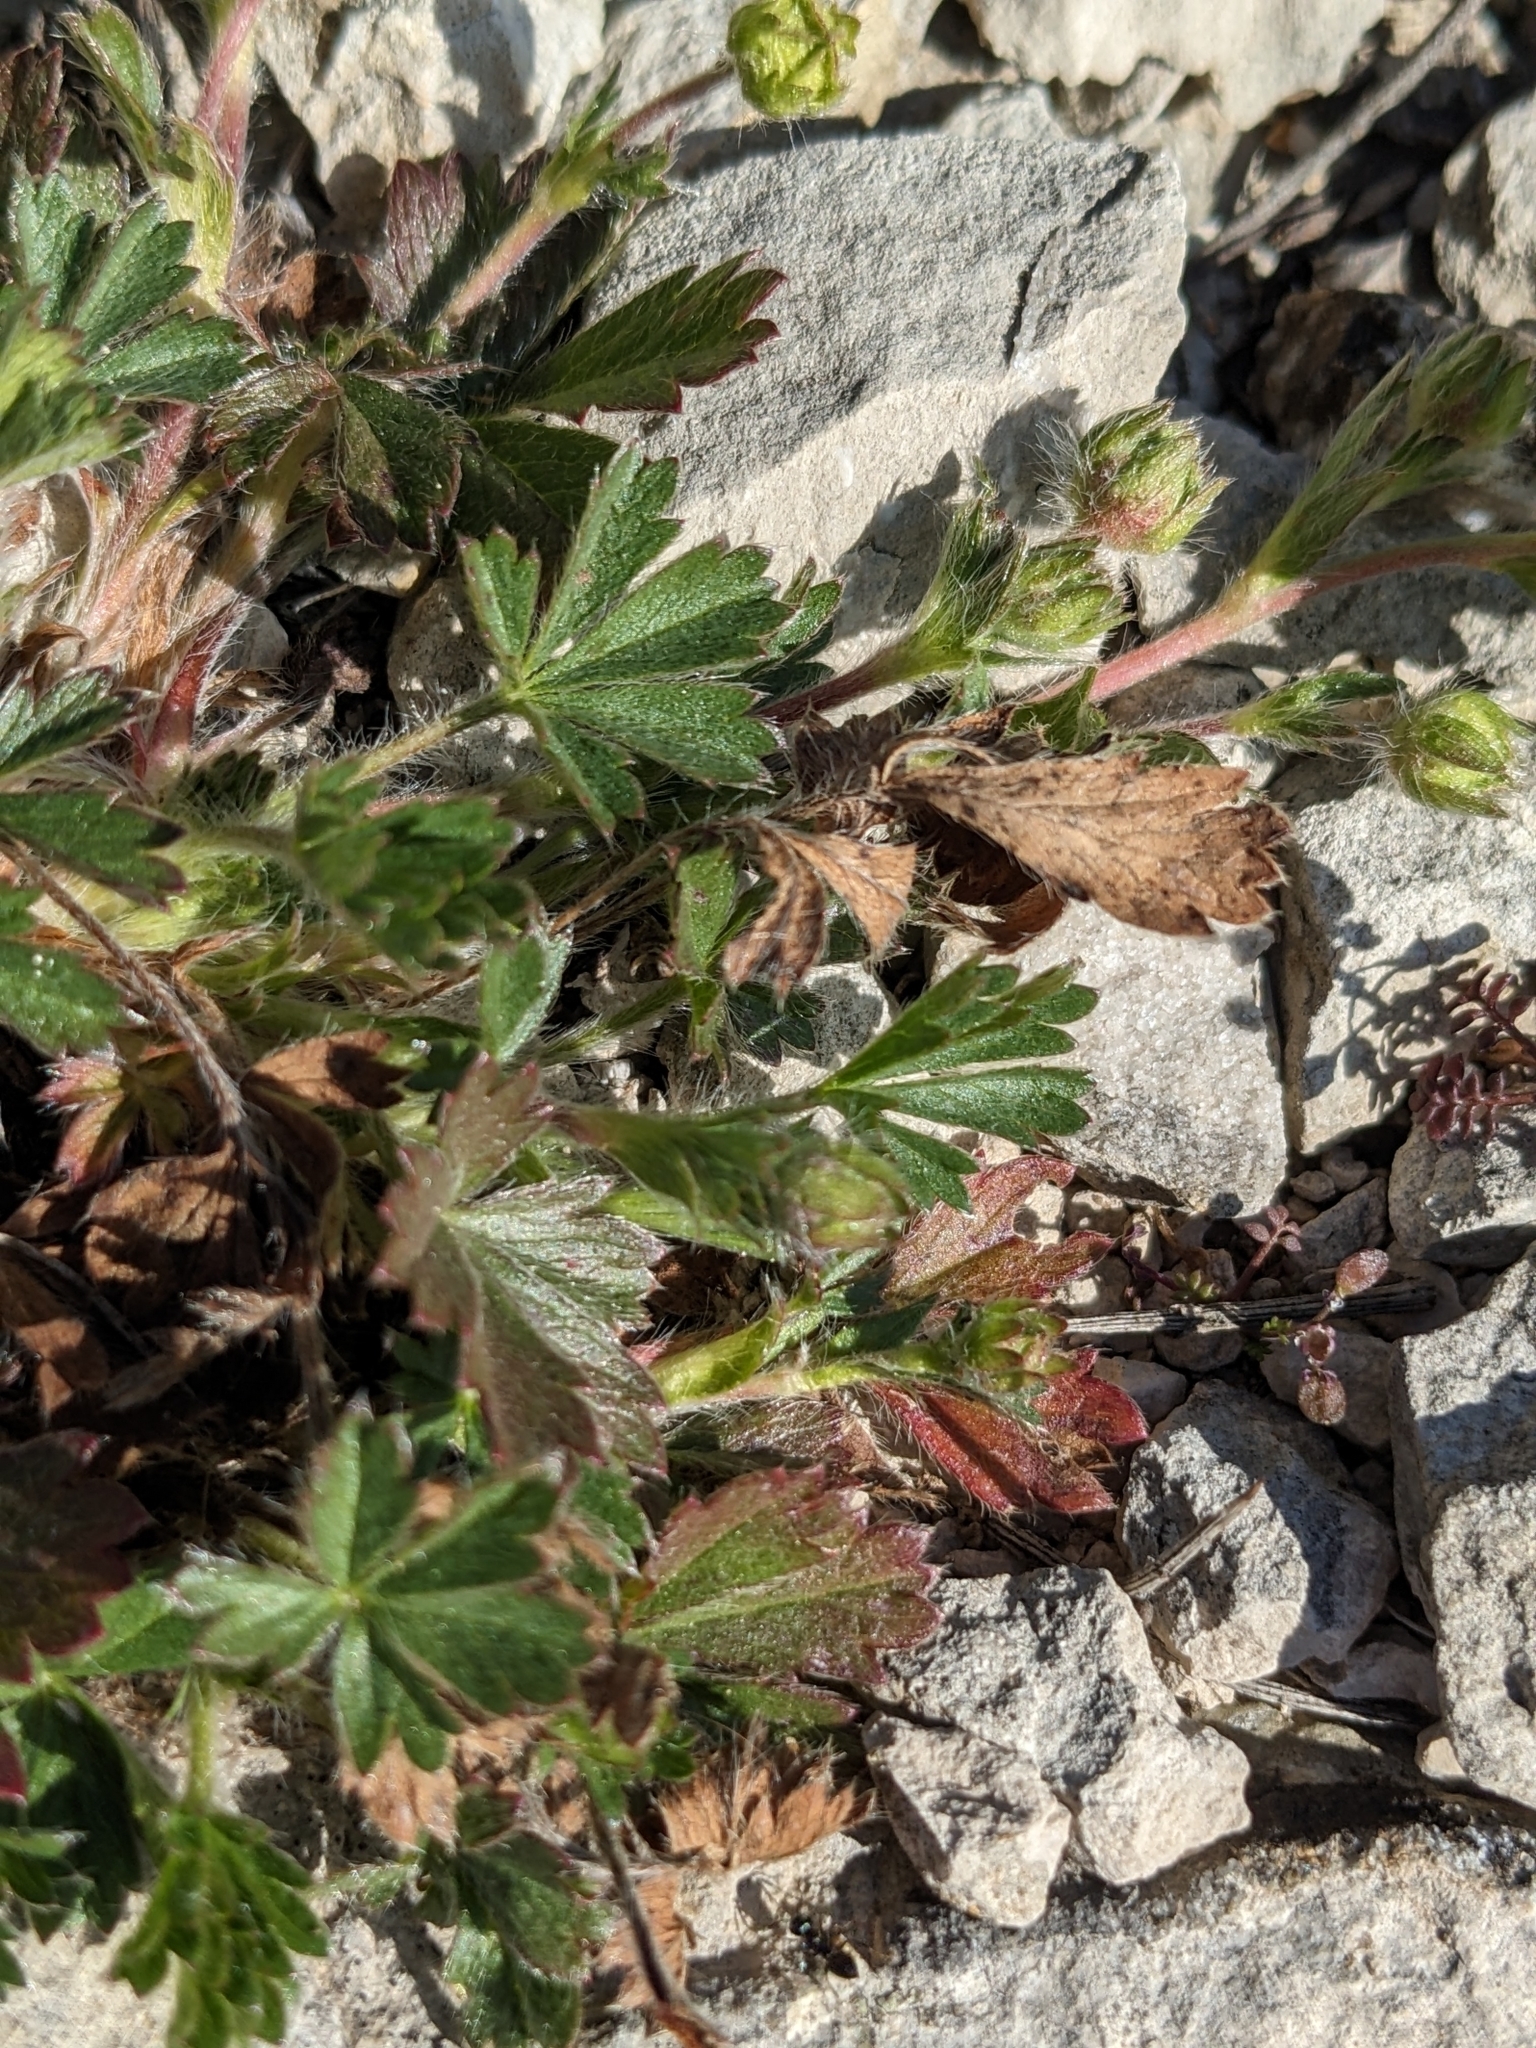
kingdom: Plantae
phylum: Tracheophyta
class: Magnoliopsida
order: Rosales
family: Rosaceae
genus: Potentilla
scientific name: Potentilla verna
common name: Spring cinquefoil
